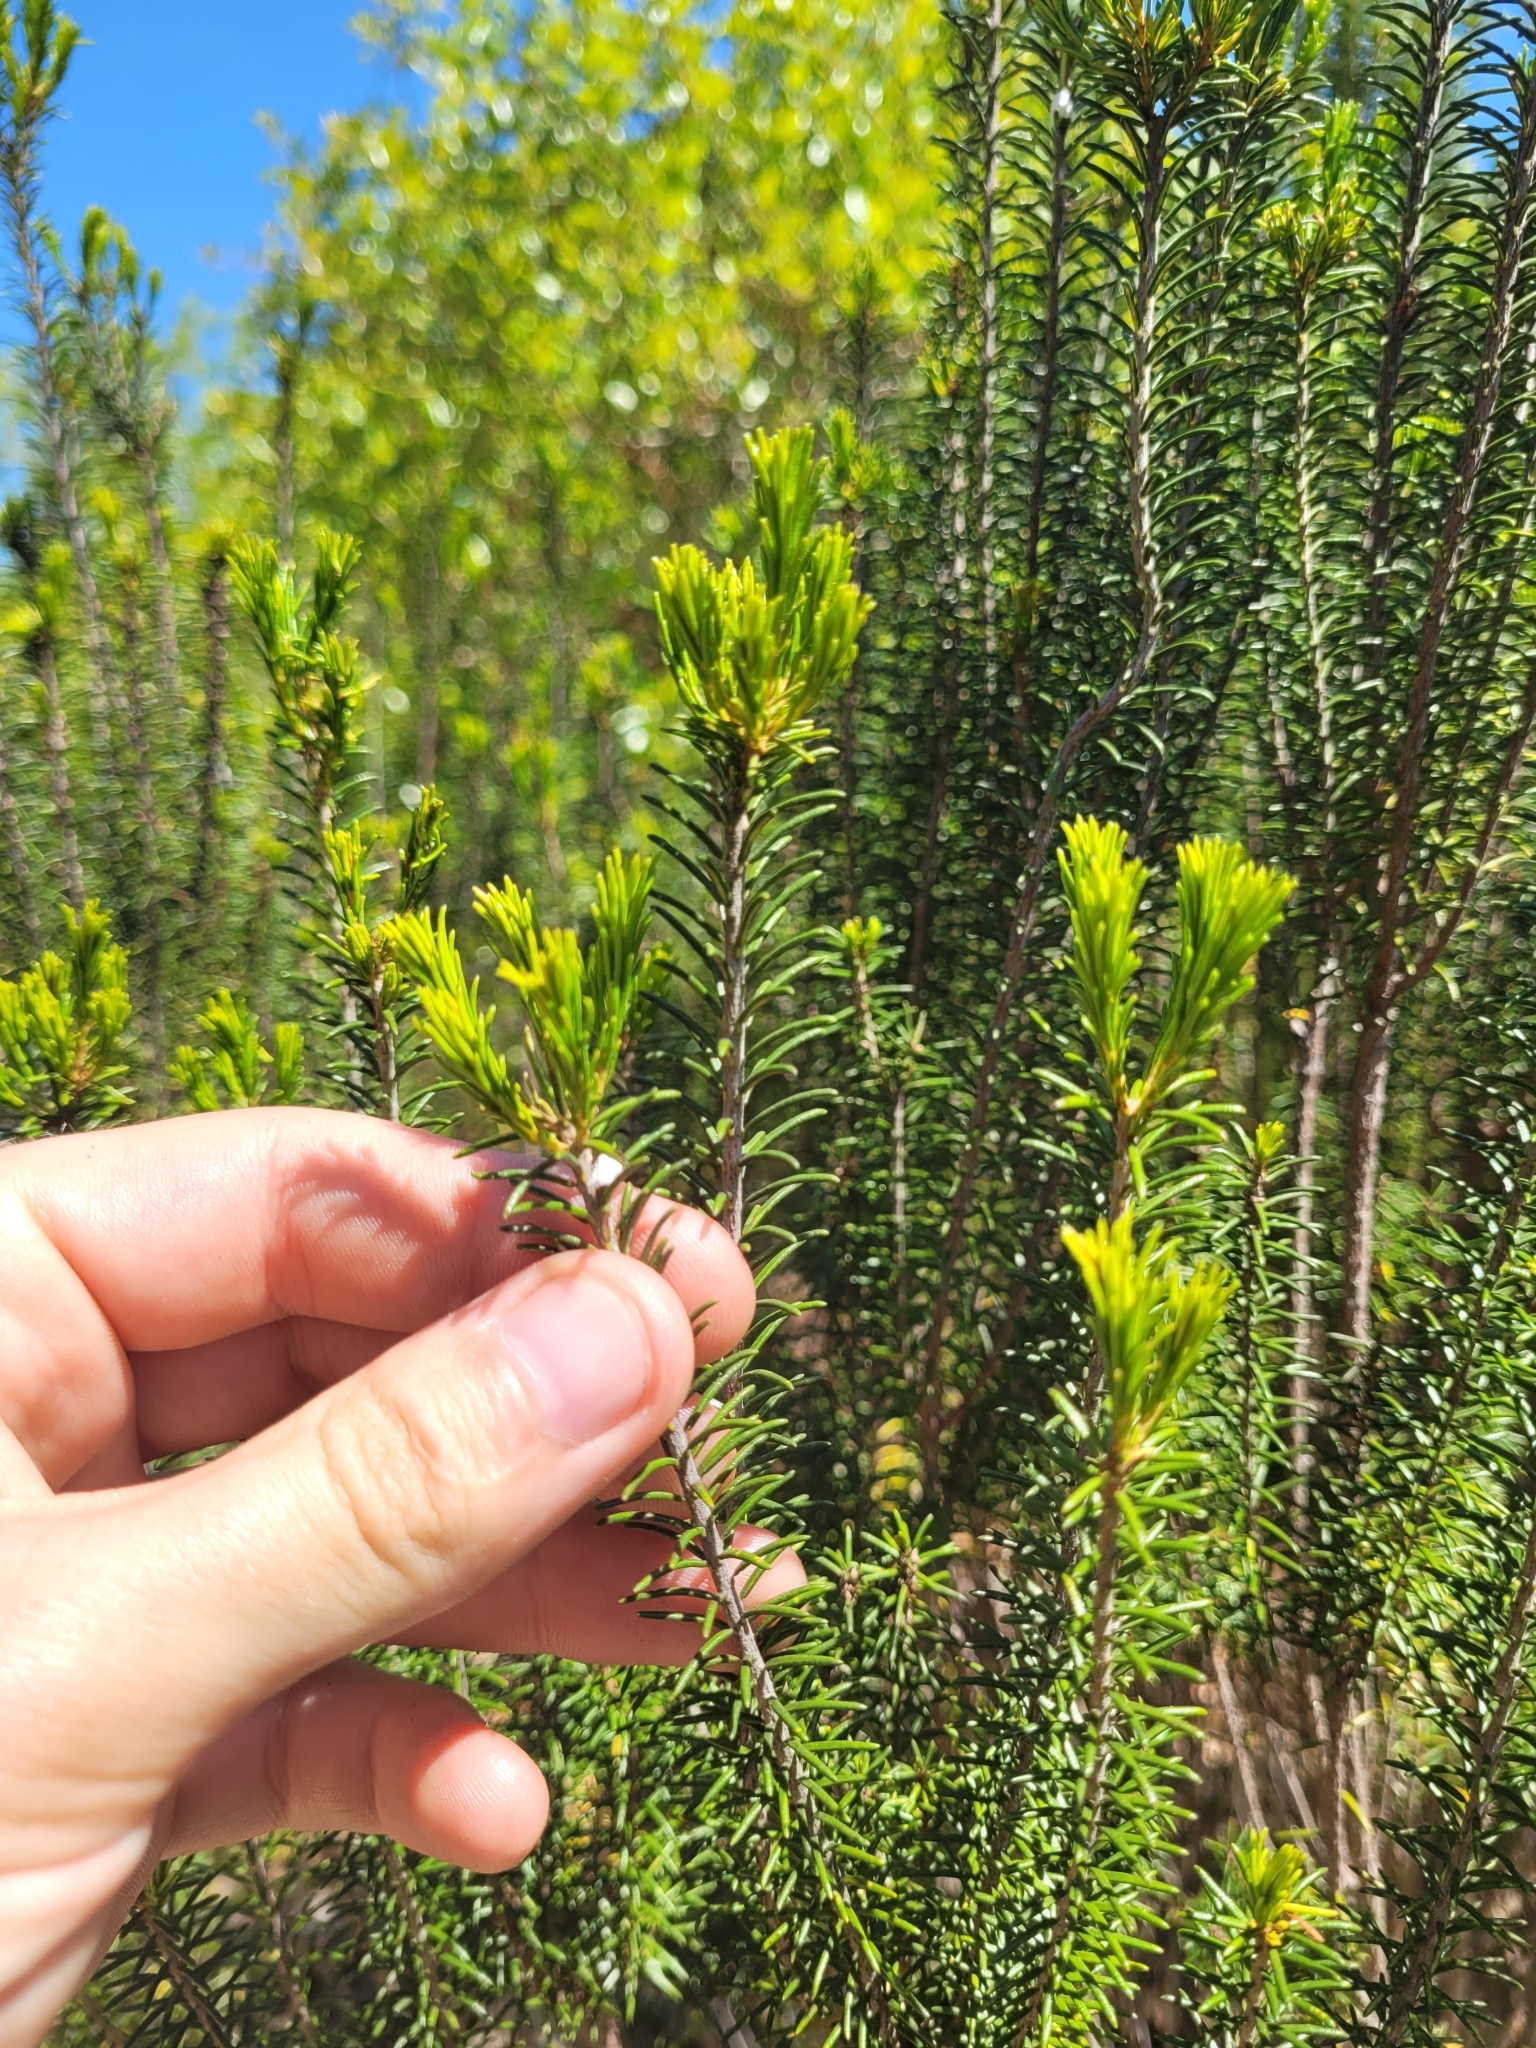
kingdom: Plantae
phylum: Tracheophyta
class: Magnoliopsida
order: Ericales
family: Ericaceae
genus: Ceratiola
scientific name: Ceratiola ericoides
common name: Sandhill-rosemary
